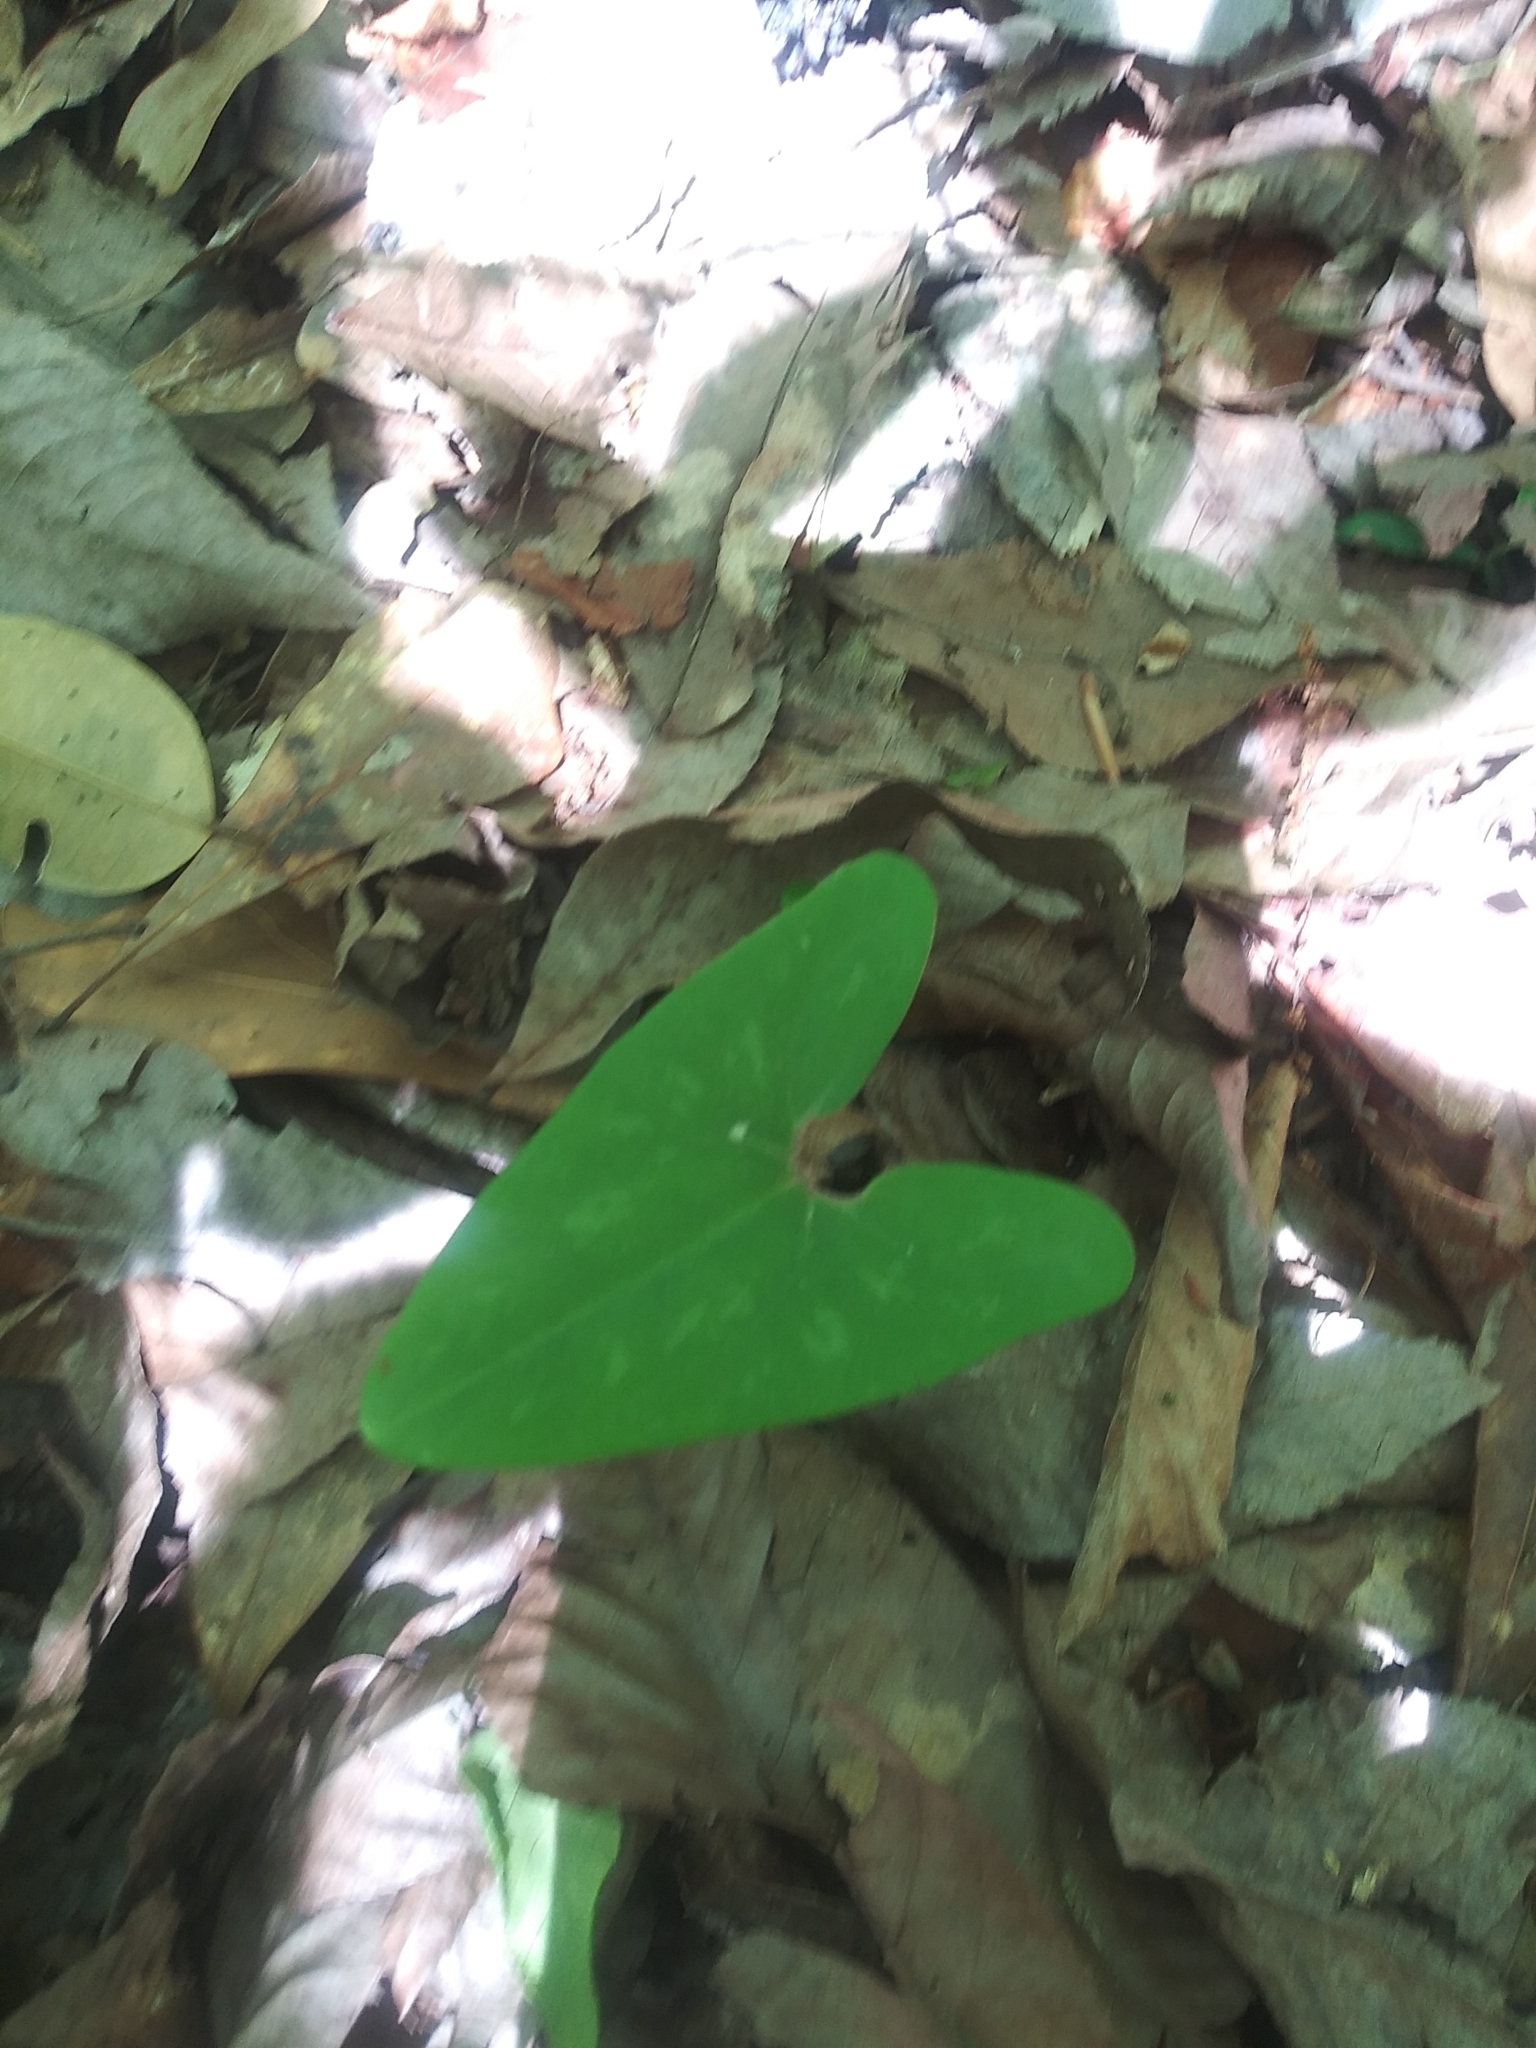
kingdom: Plantae
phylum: Tracheophyta
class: Magnoliopsida
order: Piperales
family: Aristolochiaceae
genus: Hexastylis
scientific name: Hexastylis arifolia
